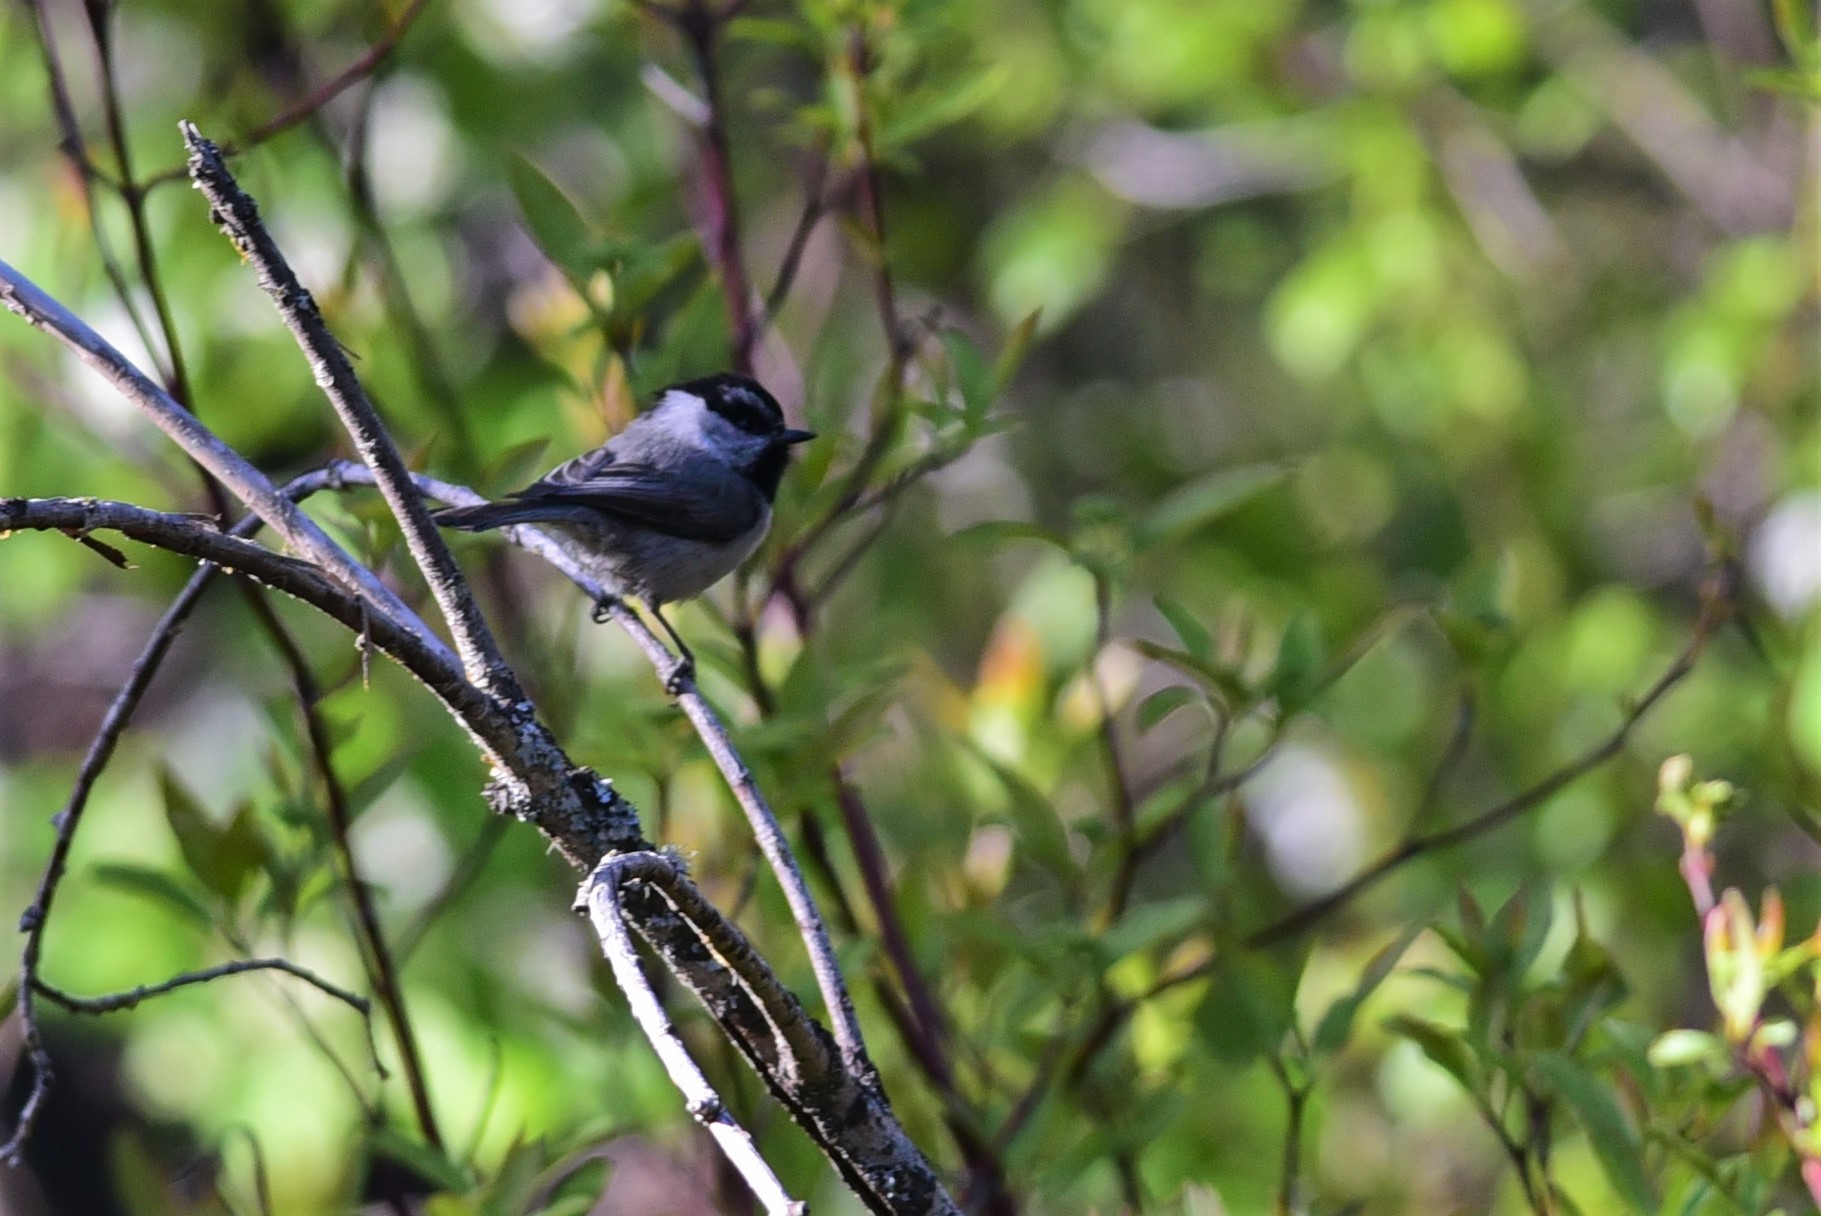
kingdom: Animalia
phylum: Chordata
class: Aves
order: Passeriformes
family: Paridae
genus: Poecile
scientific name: Poecile gambeli
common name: Mountain chickadee
